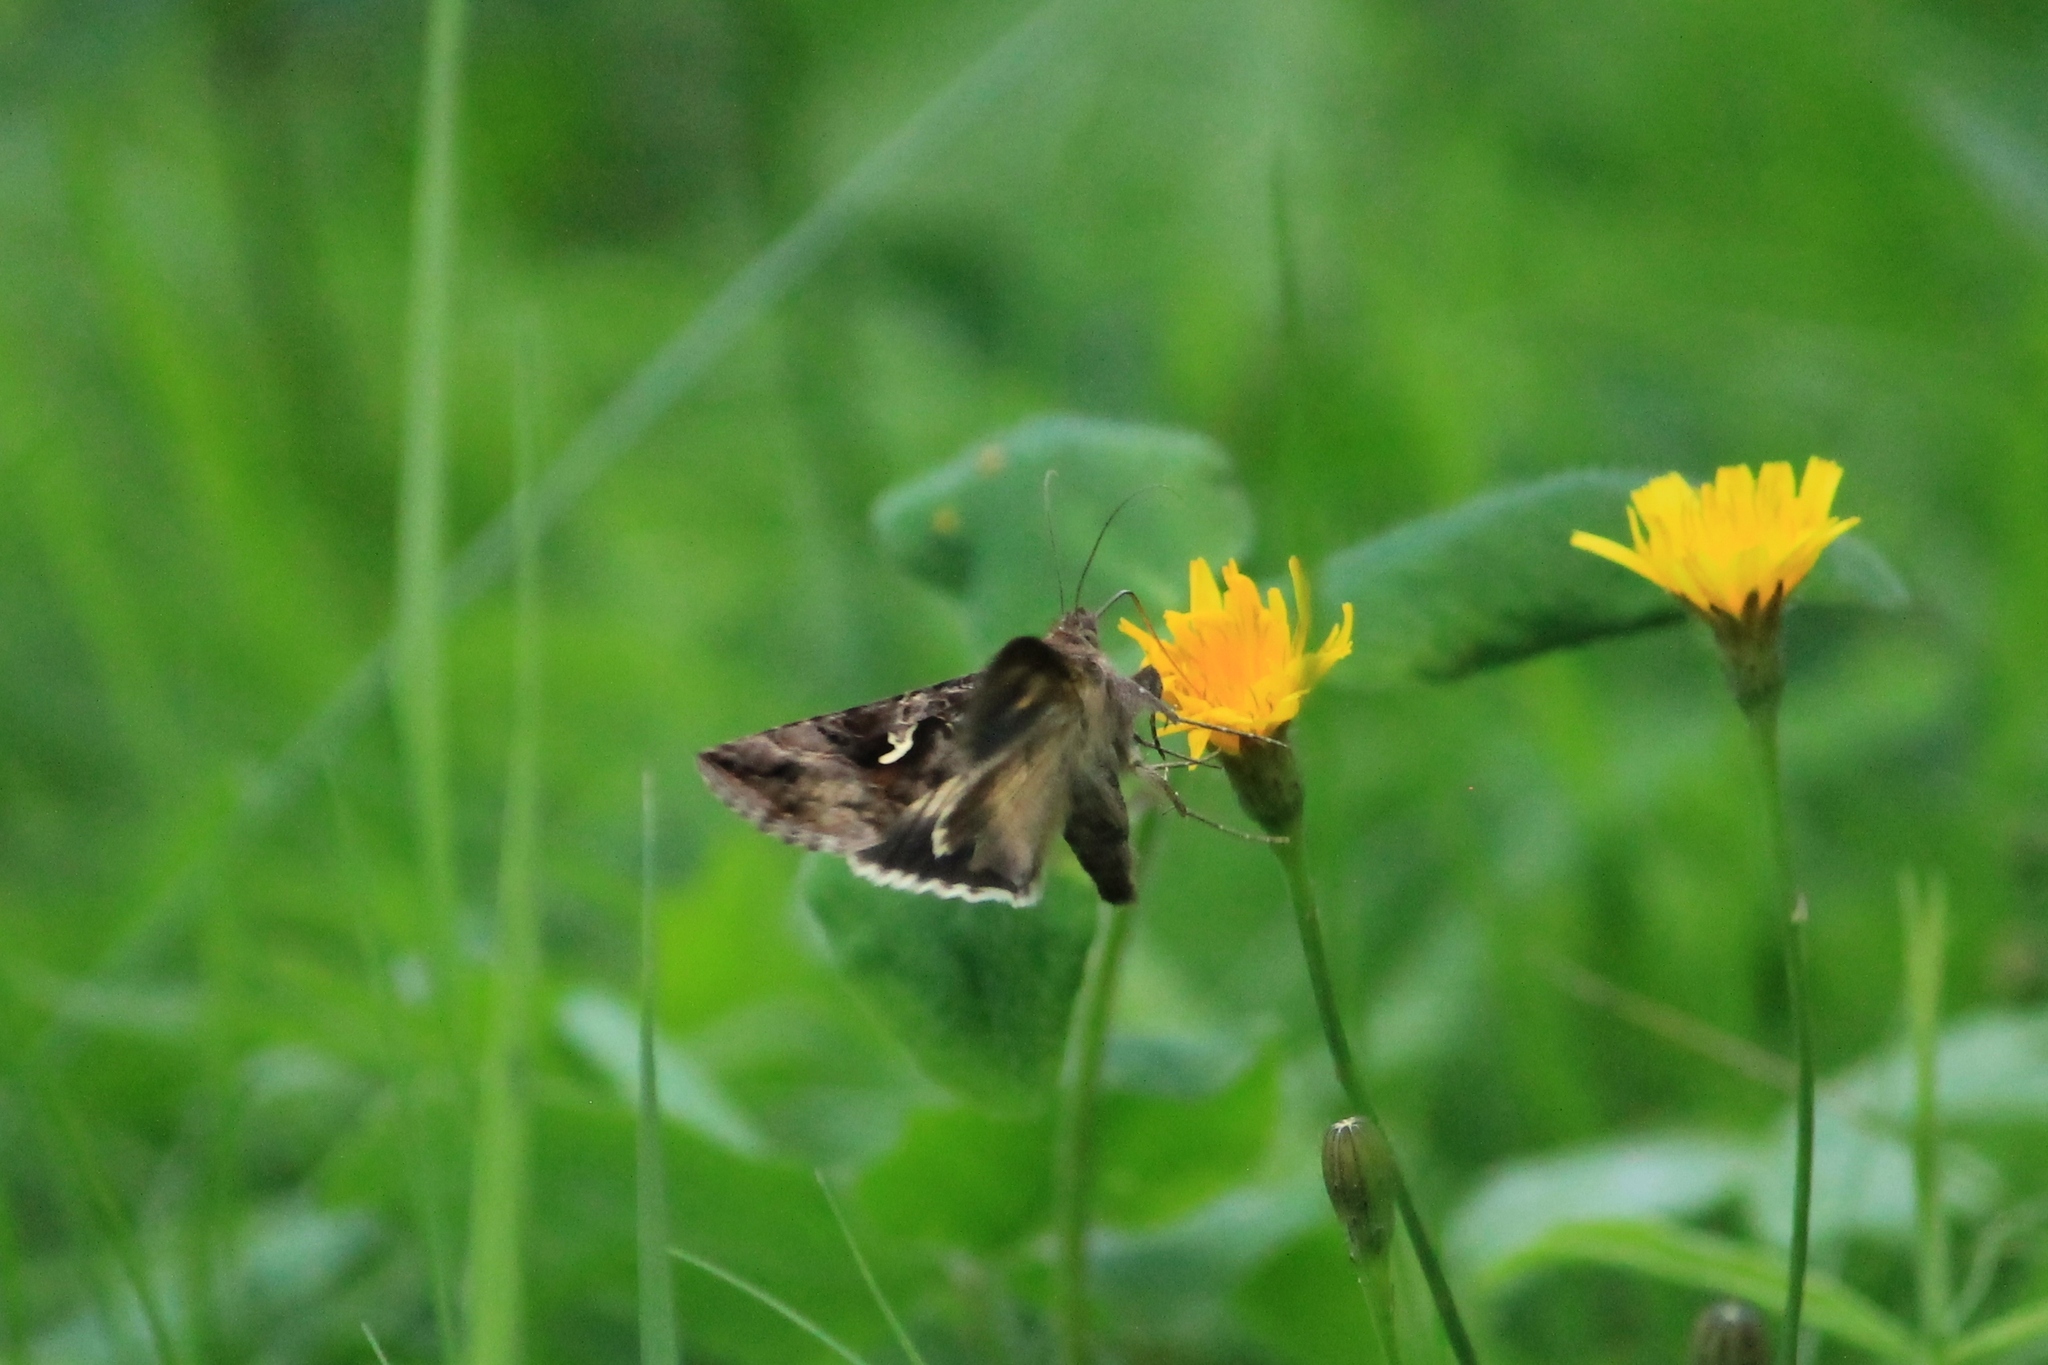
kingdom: Animalia
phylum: Arthropoda
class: Insecta
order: Lepidoptera
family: Noctuidae
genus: Autographa
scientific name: Autographa gamma
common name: Silver y
